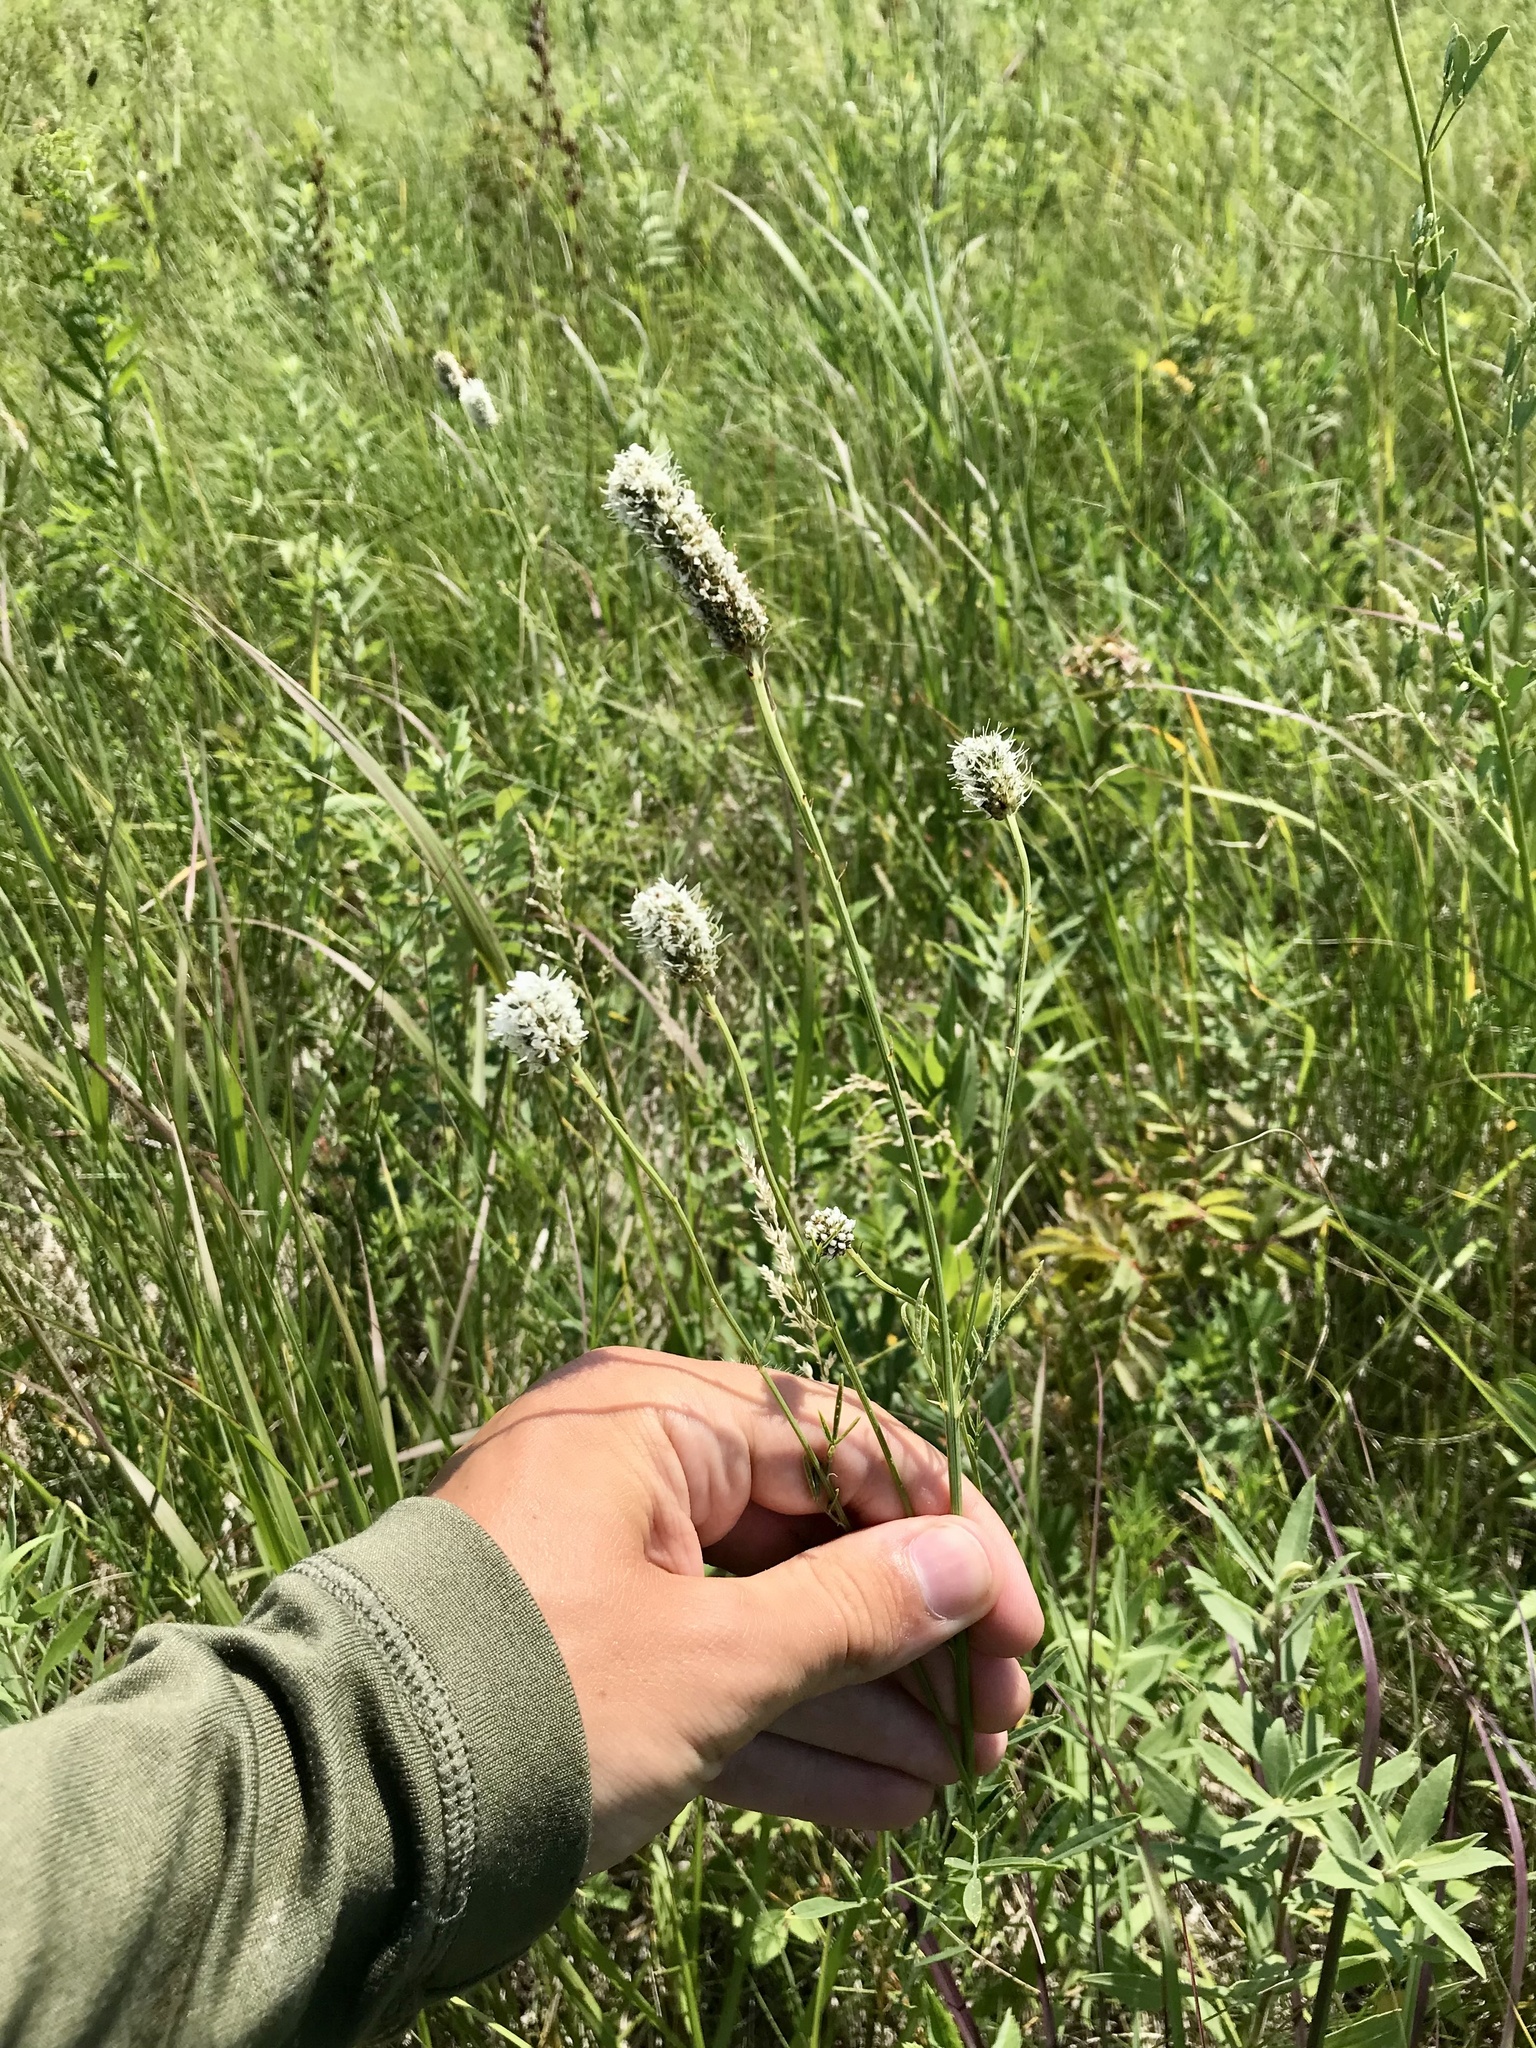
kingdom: Plantae
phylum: Tracheophyta
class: Magnoliopsida
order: Fabales
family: Fabaceae
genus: Dalea
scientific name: Dalea candida
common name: White prairie-clover
